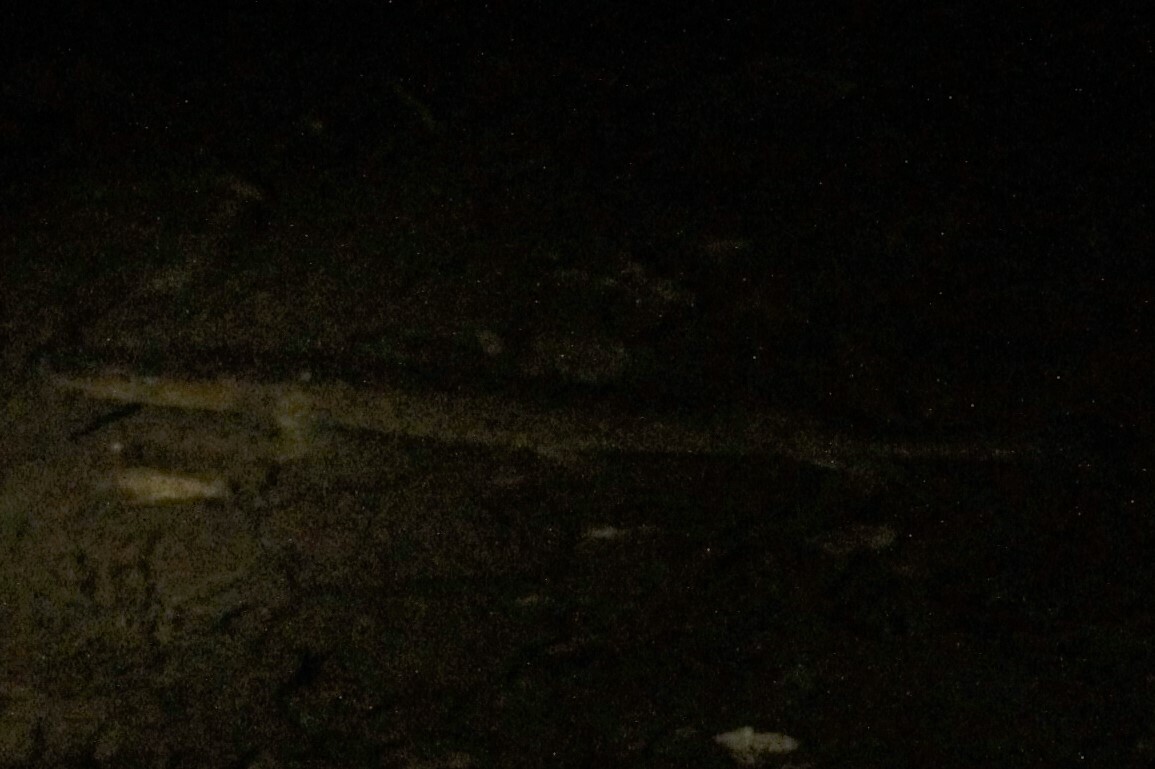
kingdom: Animalia
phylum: Chordata
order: Esociformes
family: Esocidae
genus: Esox
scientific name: Esox
